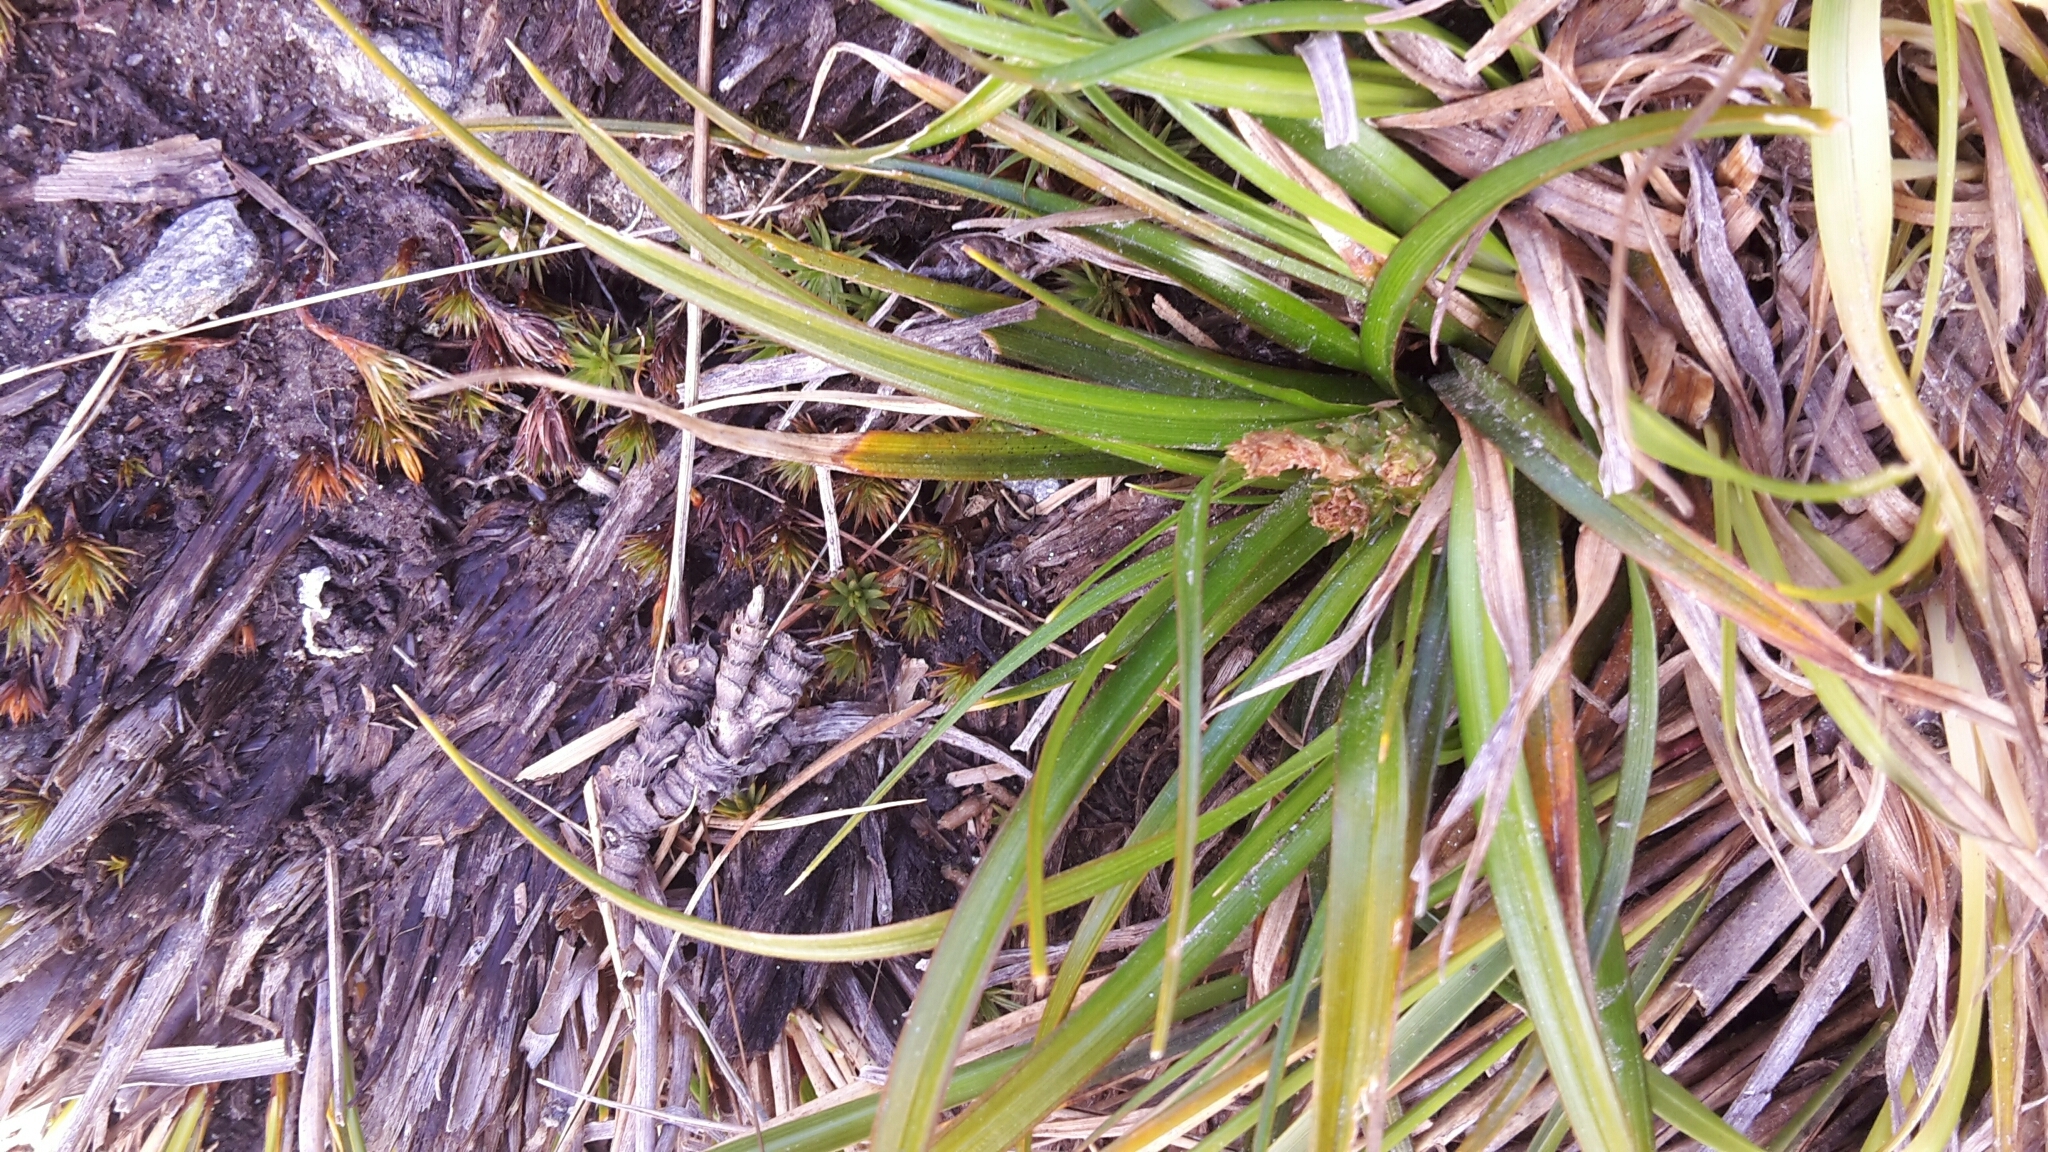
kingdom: Plantae
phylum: Tracheophyta
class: Liliopsida
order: Poales
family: Cyperaceae
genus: Carex
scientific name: Carex breviculmis
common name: Asian shortstem sedge
